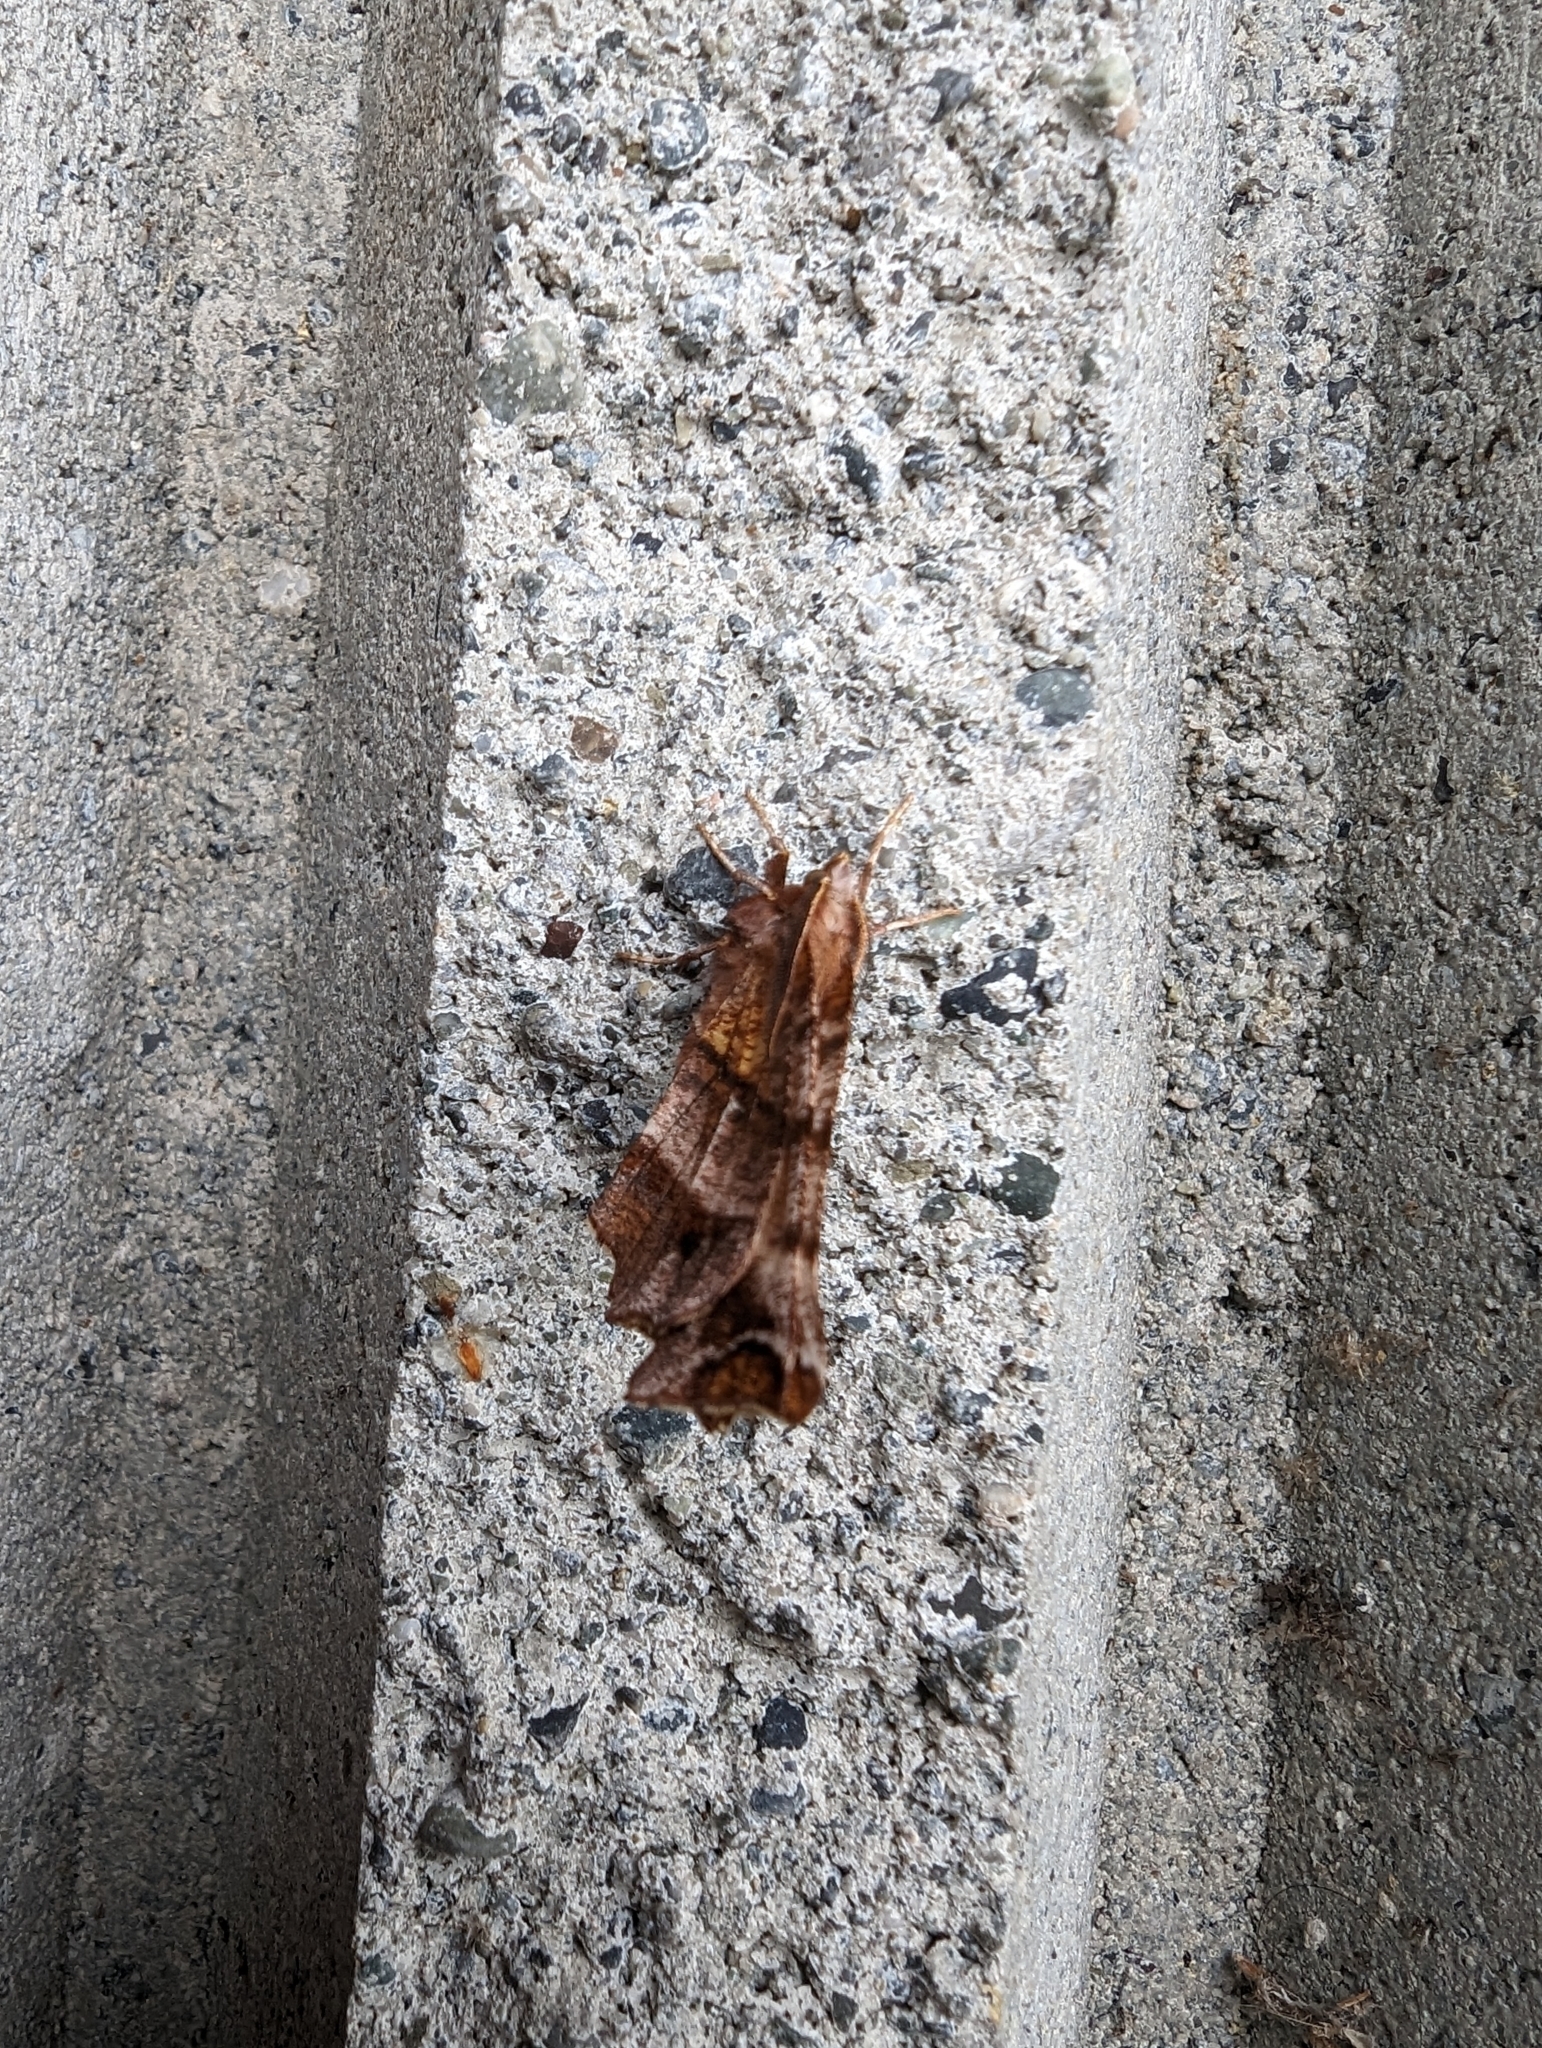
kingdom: Animalia
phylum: Arthropoda
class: Insecta
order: Lepidoptera
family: Geometridae
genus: Selenia
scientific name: Selenia alciphearia
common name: Brown-tipped thorn
